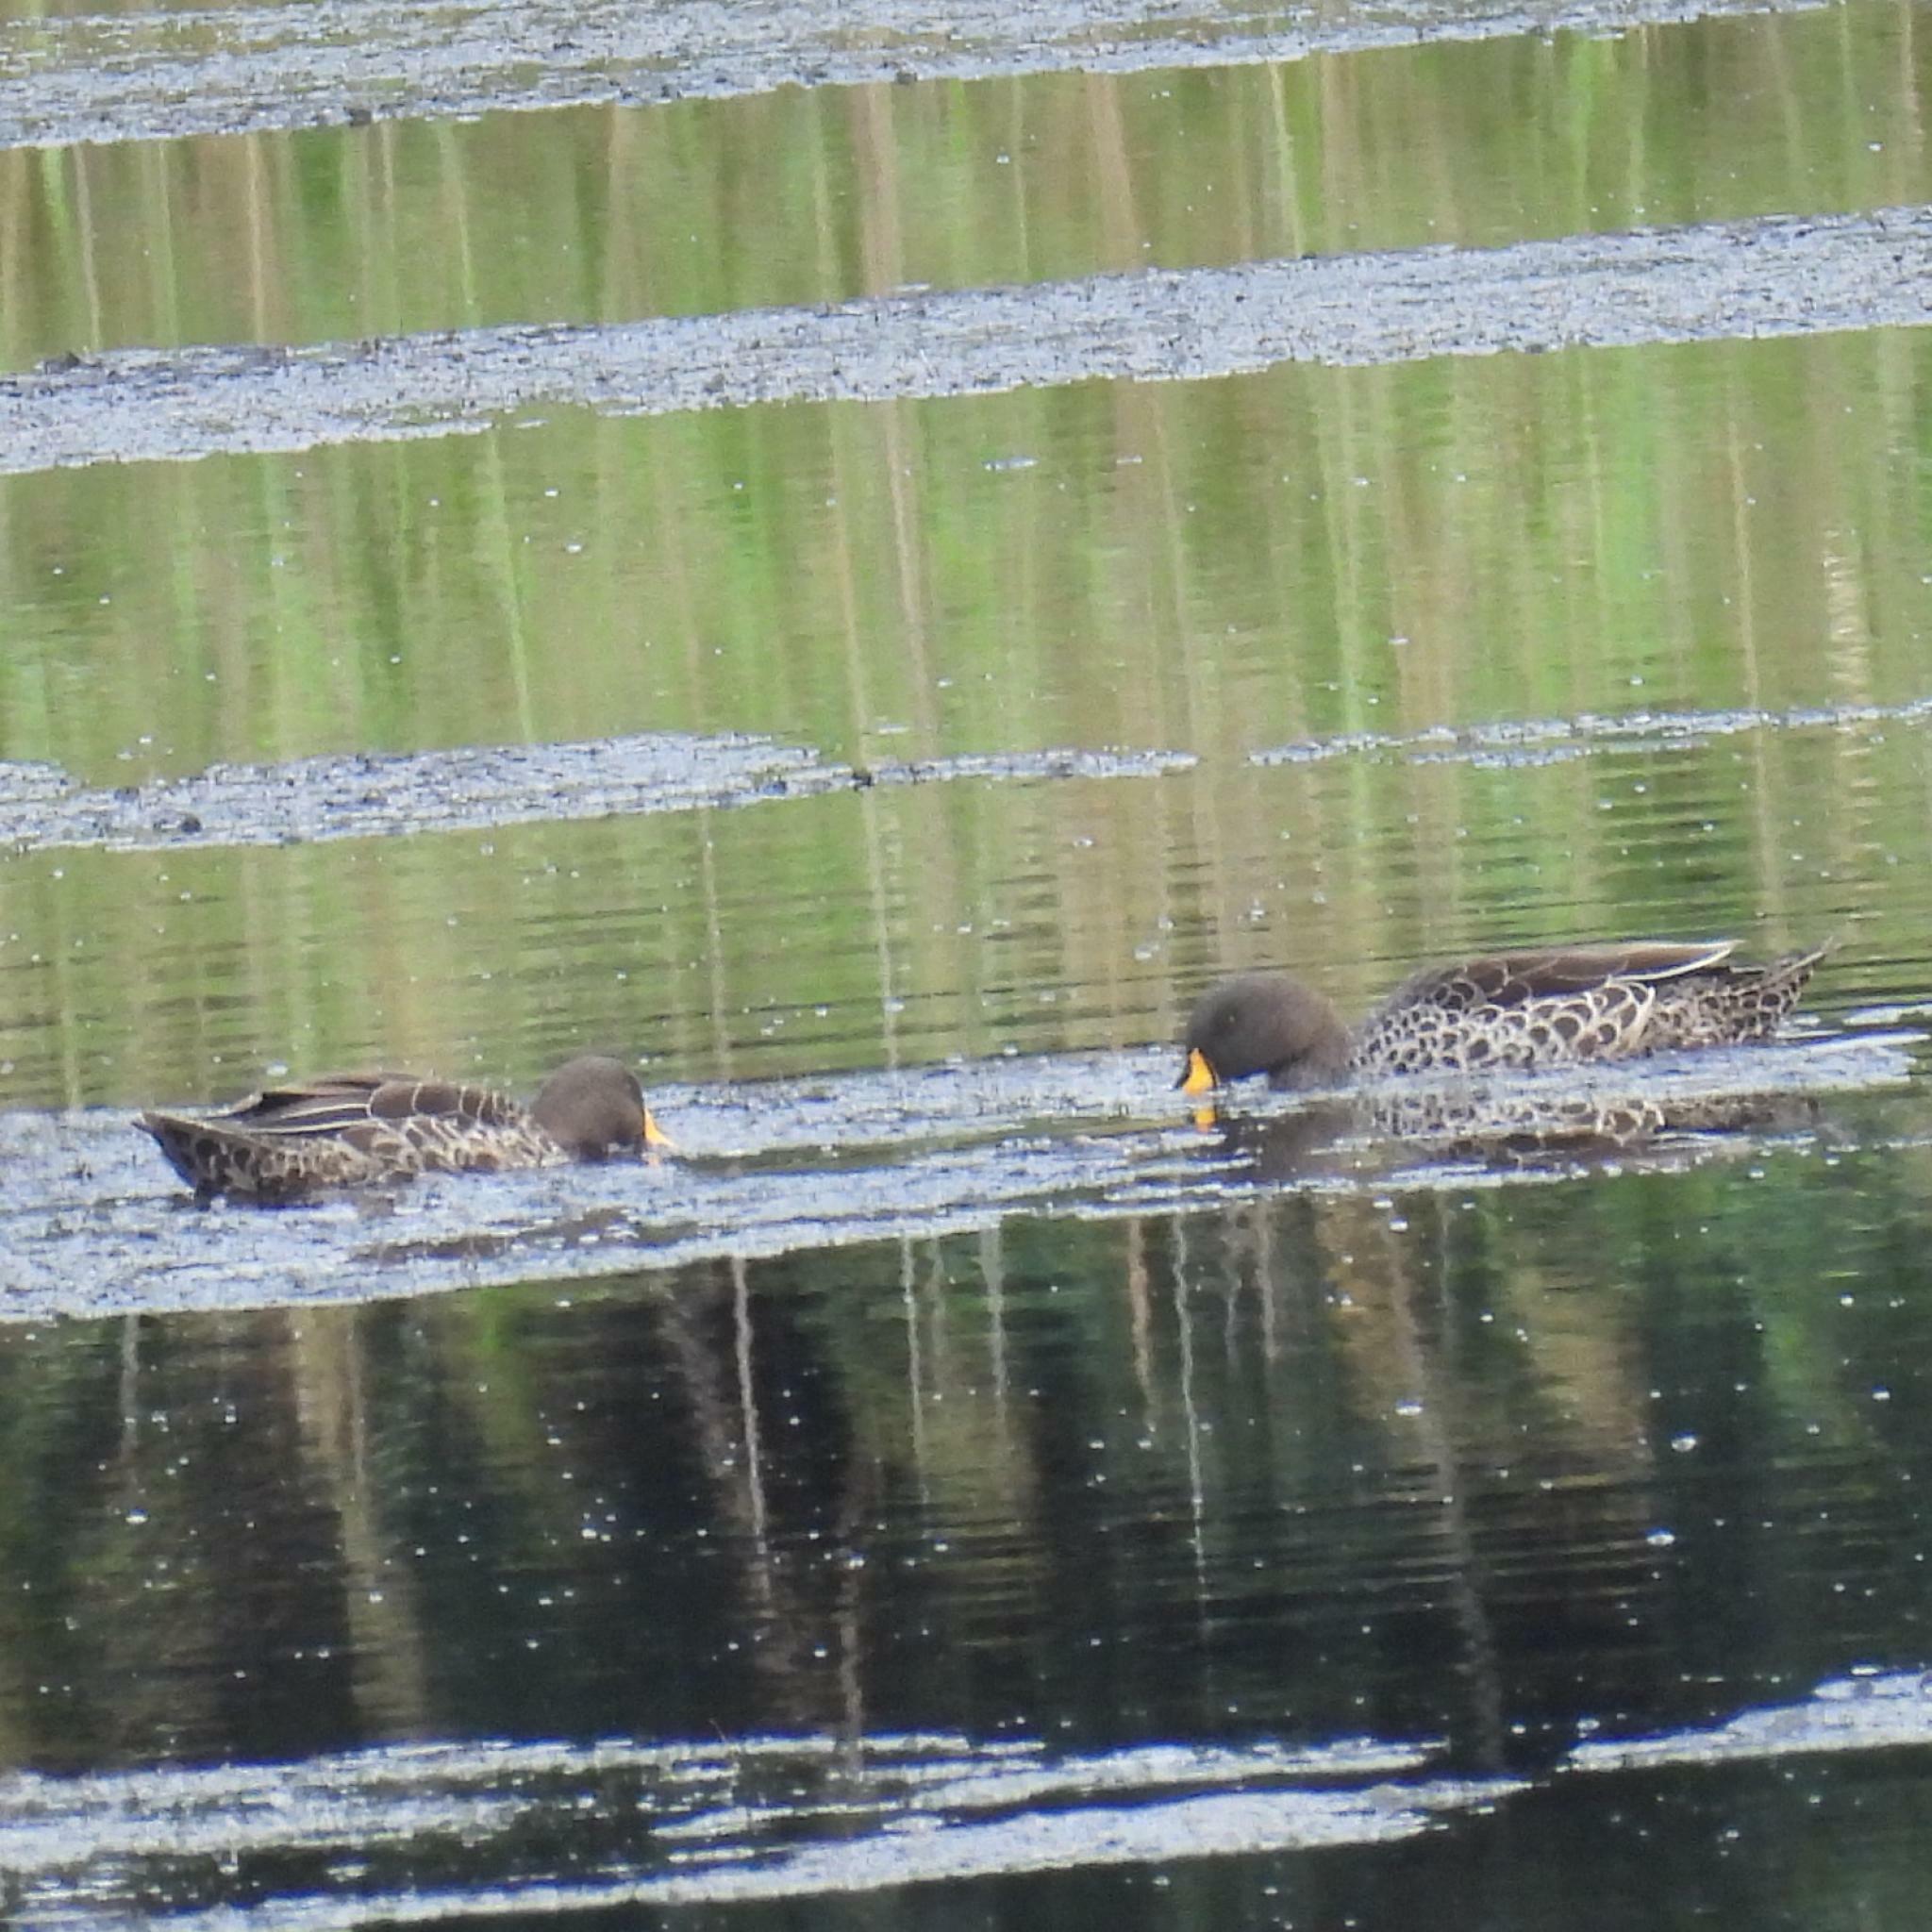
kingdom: Animalia
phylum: Chordata
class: Aves
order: Anseriformes
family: Anatidae
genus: Anas
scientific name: Anas undulata
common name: Yellow-billed duck
